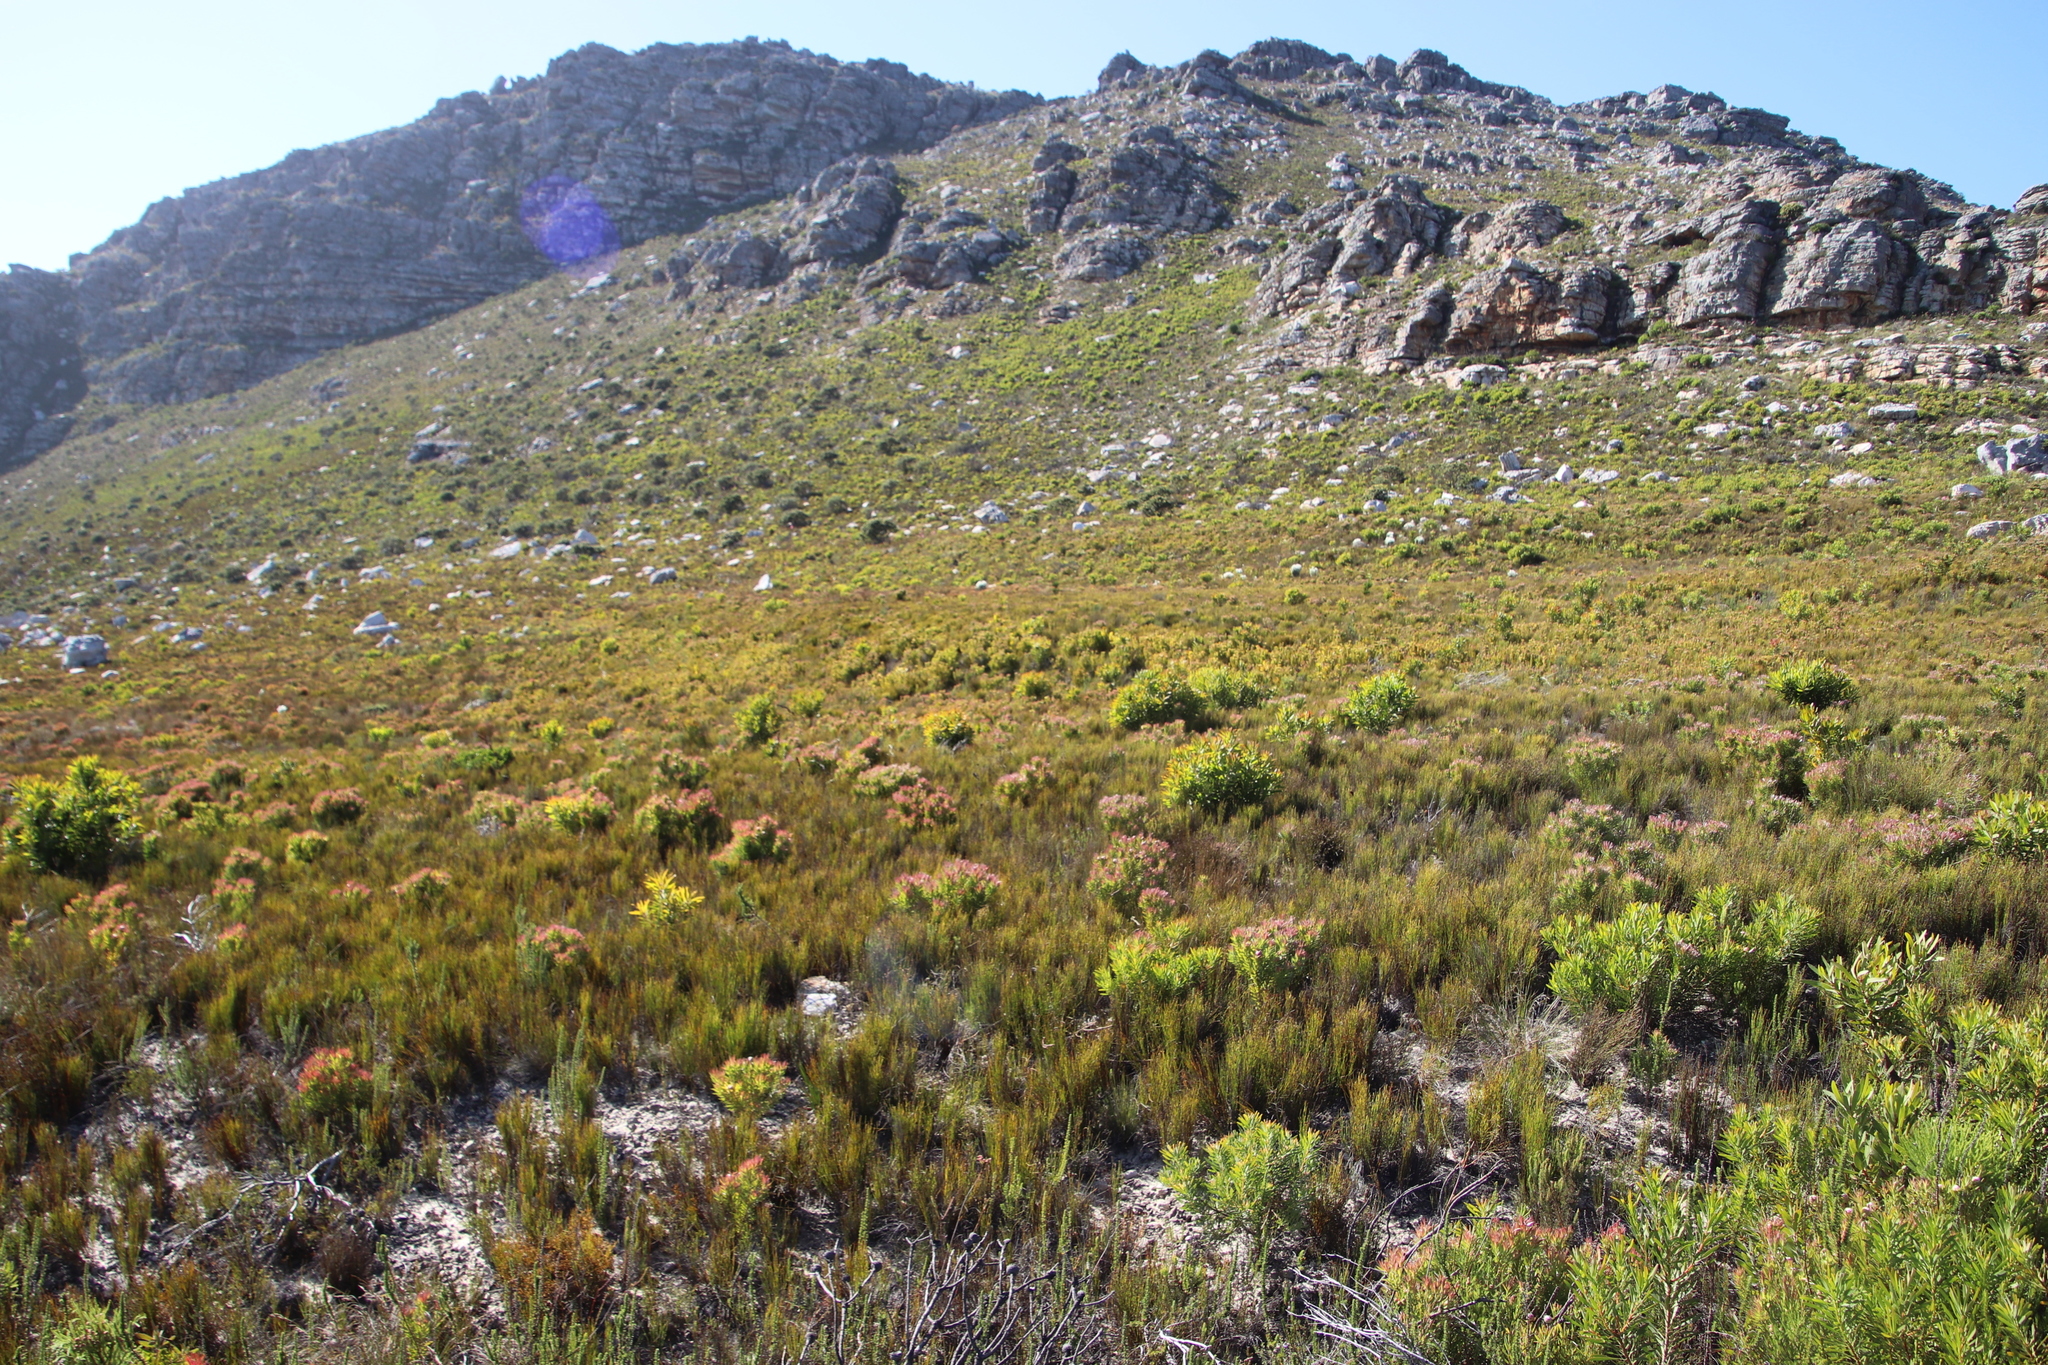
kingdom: Plantae
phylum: Tracheophyta
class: Magnoliopsida
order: Proteales
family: Proteaceae
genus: Leucadendron
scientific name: Leucadendron xanthoconus
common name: Sickle-leaf conebush
